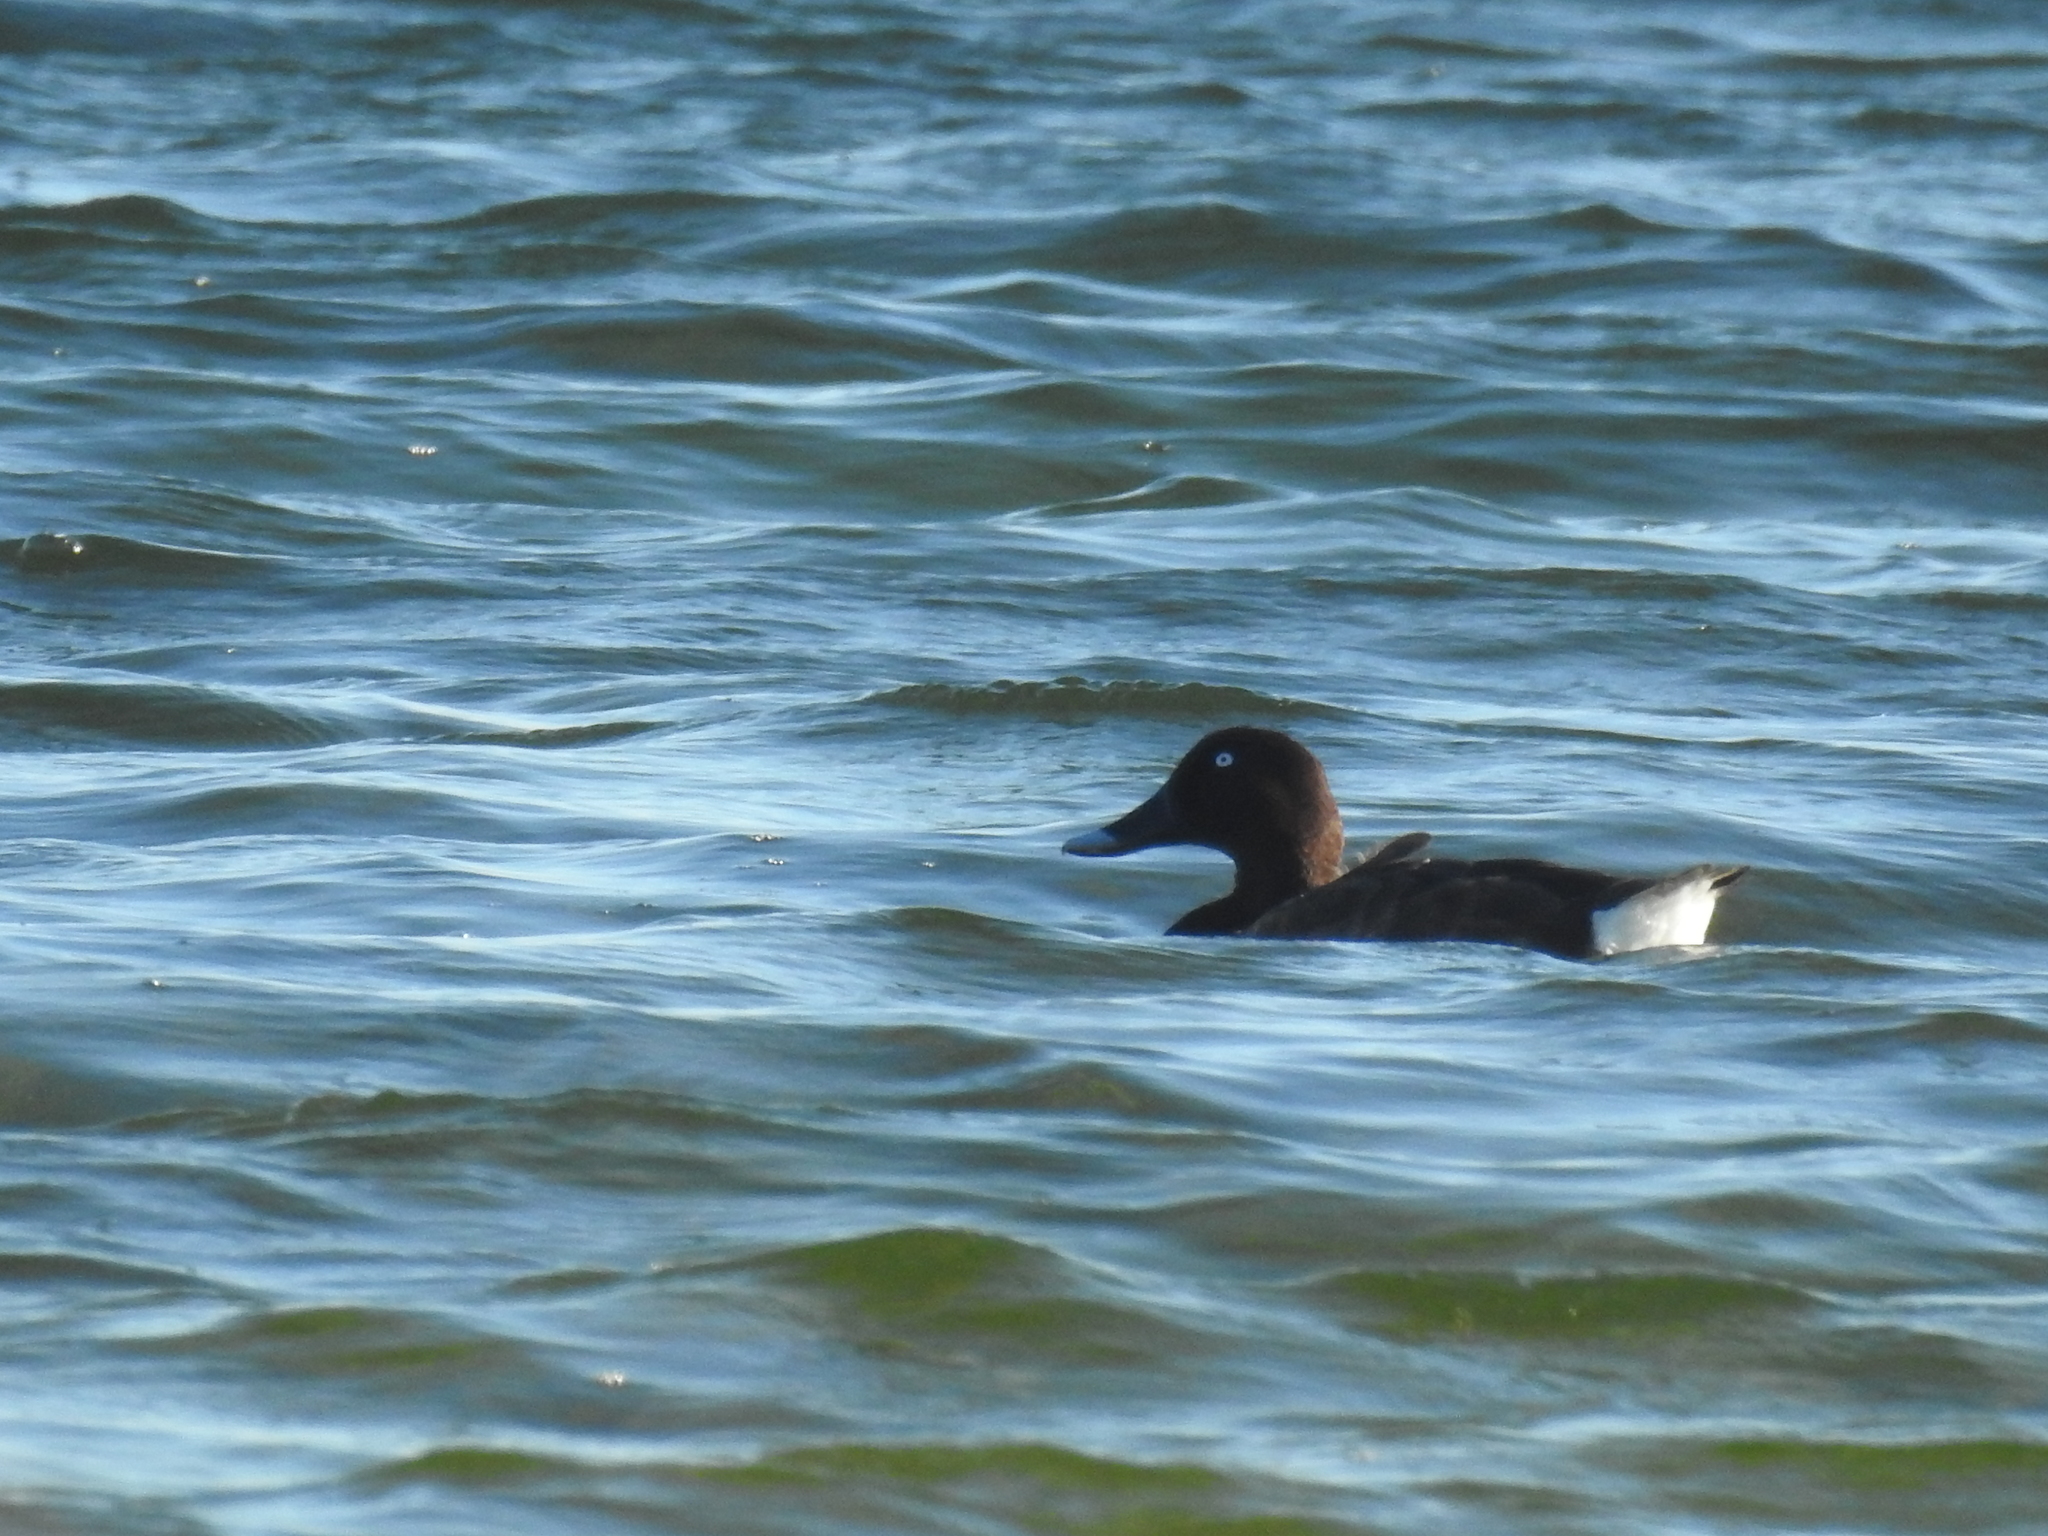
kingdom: Animalia
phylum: Chordata
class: Aves
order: Anseriformes
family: Anatidae
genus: Aythya
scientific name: Aythya australis
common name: Hardhead
